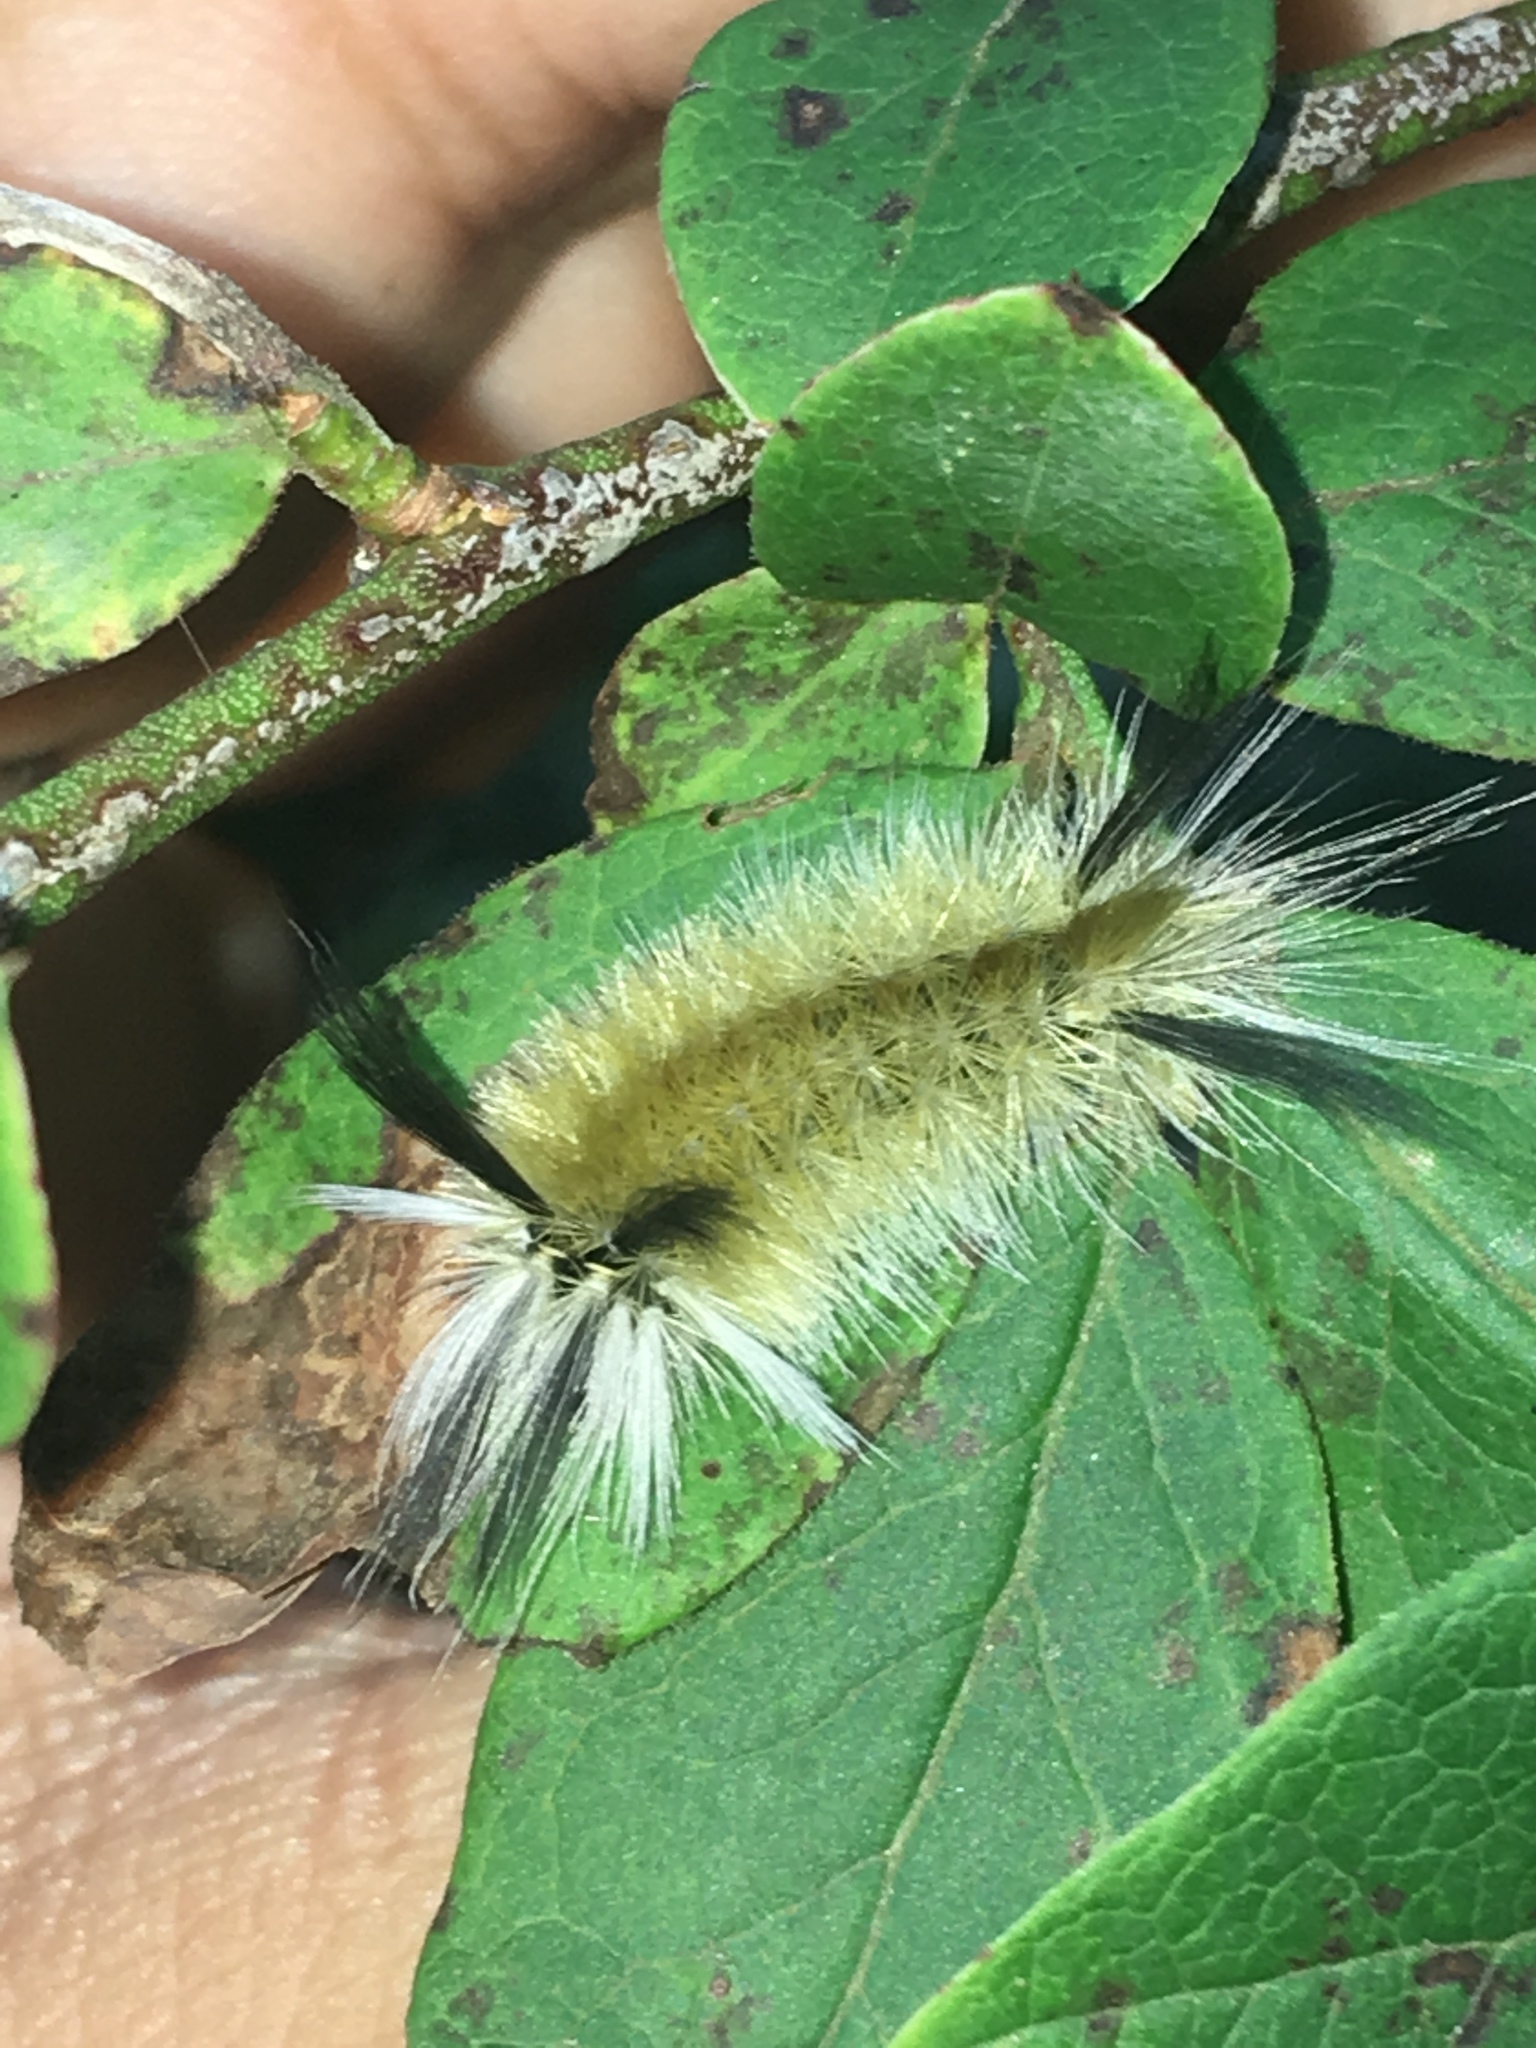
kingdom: Animalia
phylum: Arthropoda
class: Insecta
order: Lepidoptera
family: Erebidae
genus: Halysidota
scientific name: Halysidota tessellaris
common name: Banded tussock moth
